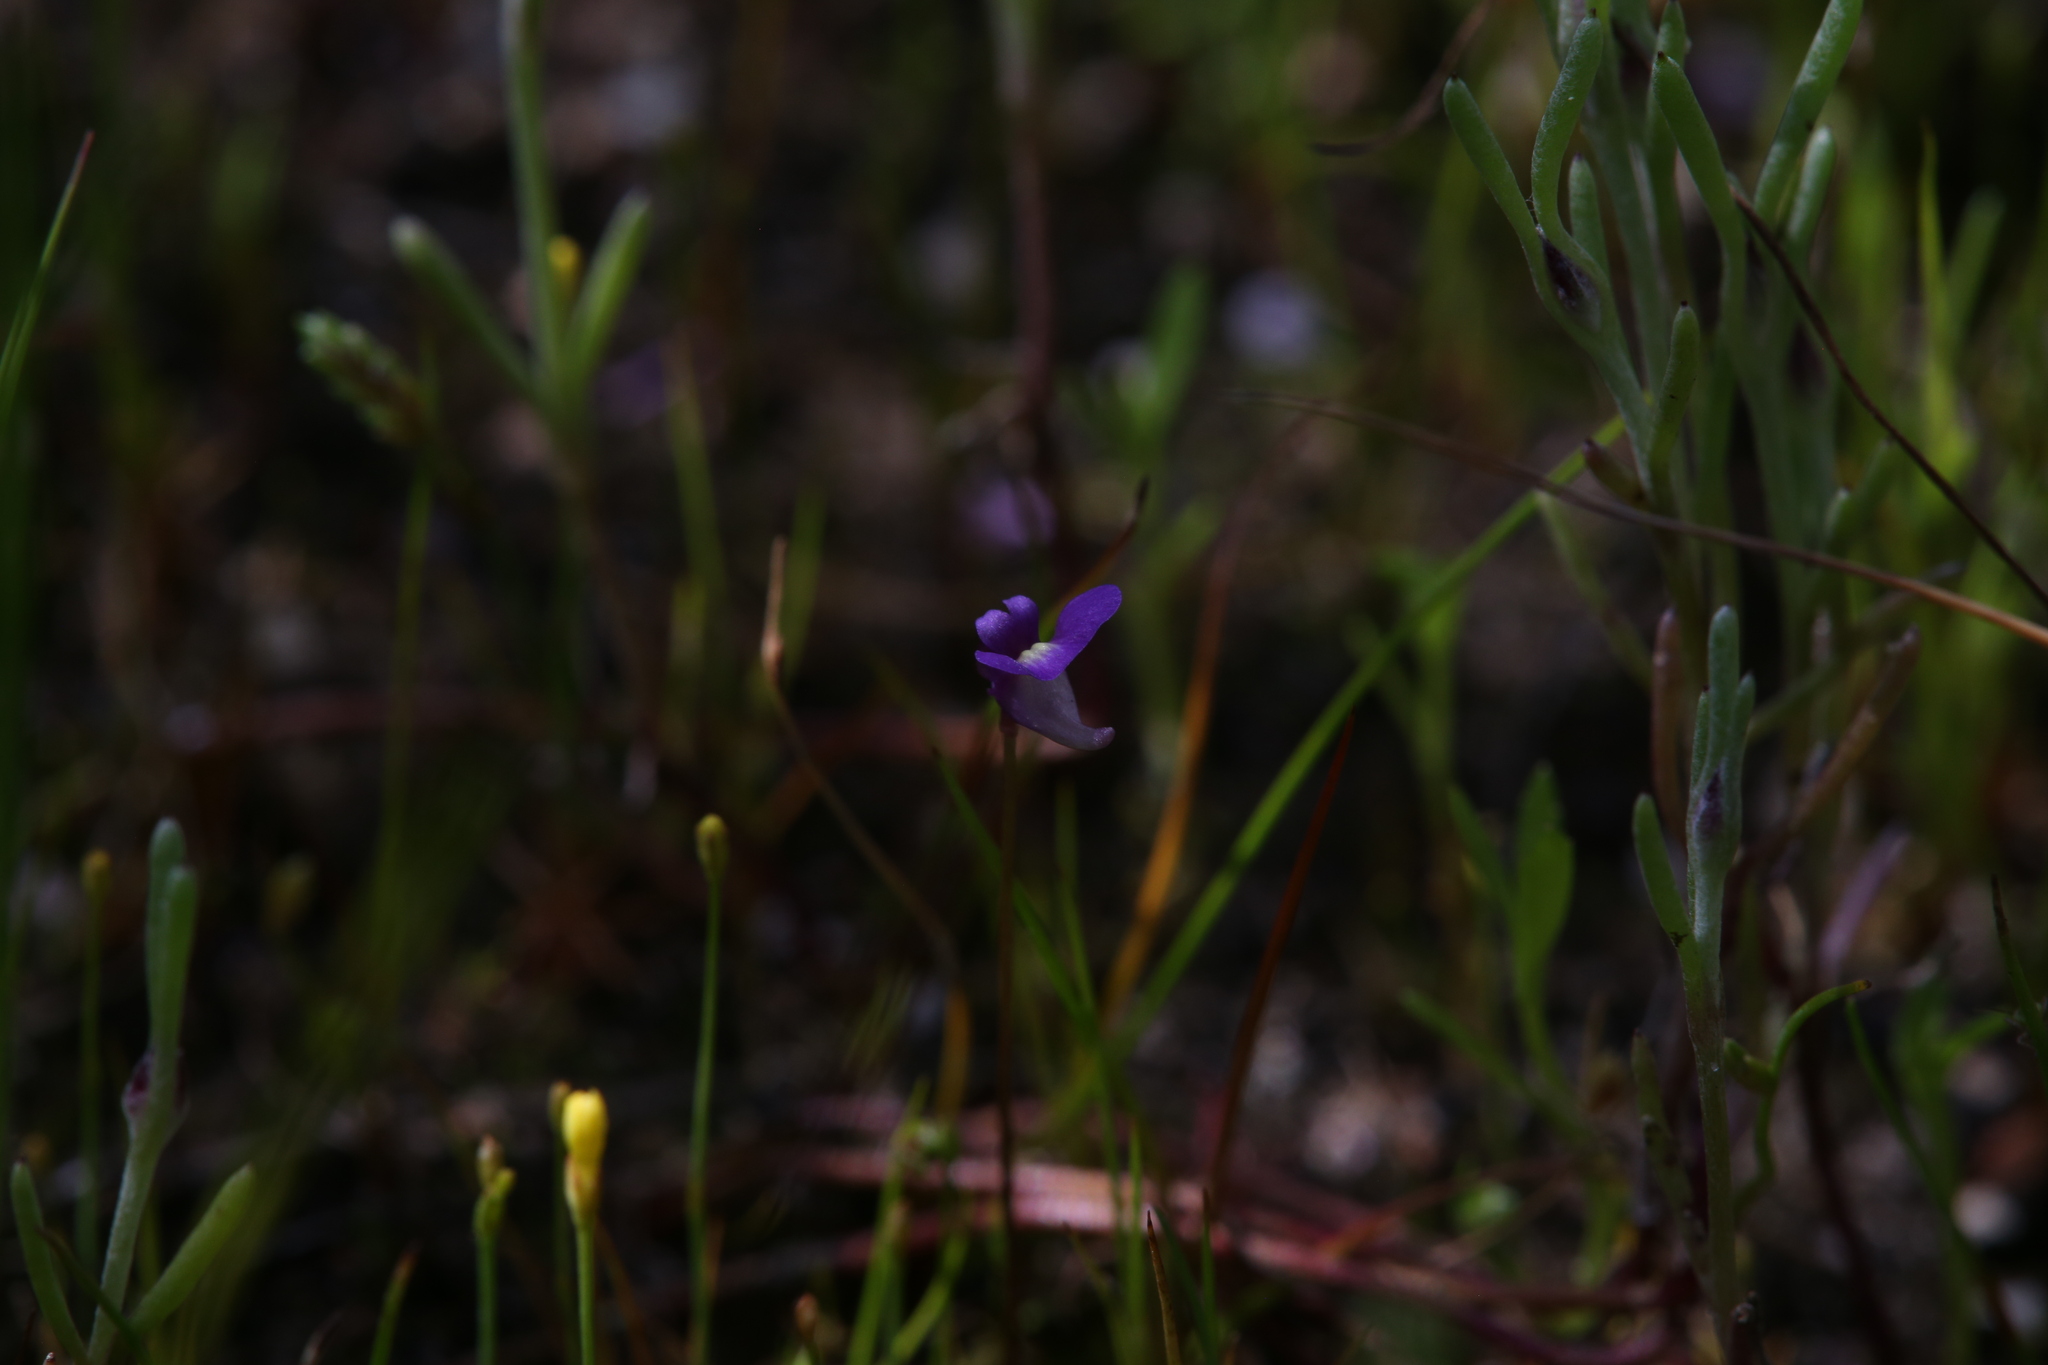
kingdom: Plantae
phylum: Tracheophyta
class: Magnoliopsida
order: Lamiales
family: Lentibulariaceae
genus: Utricularia
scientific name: Utricularia violacea
